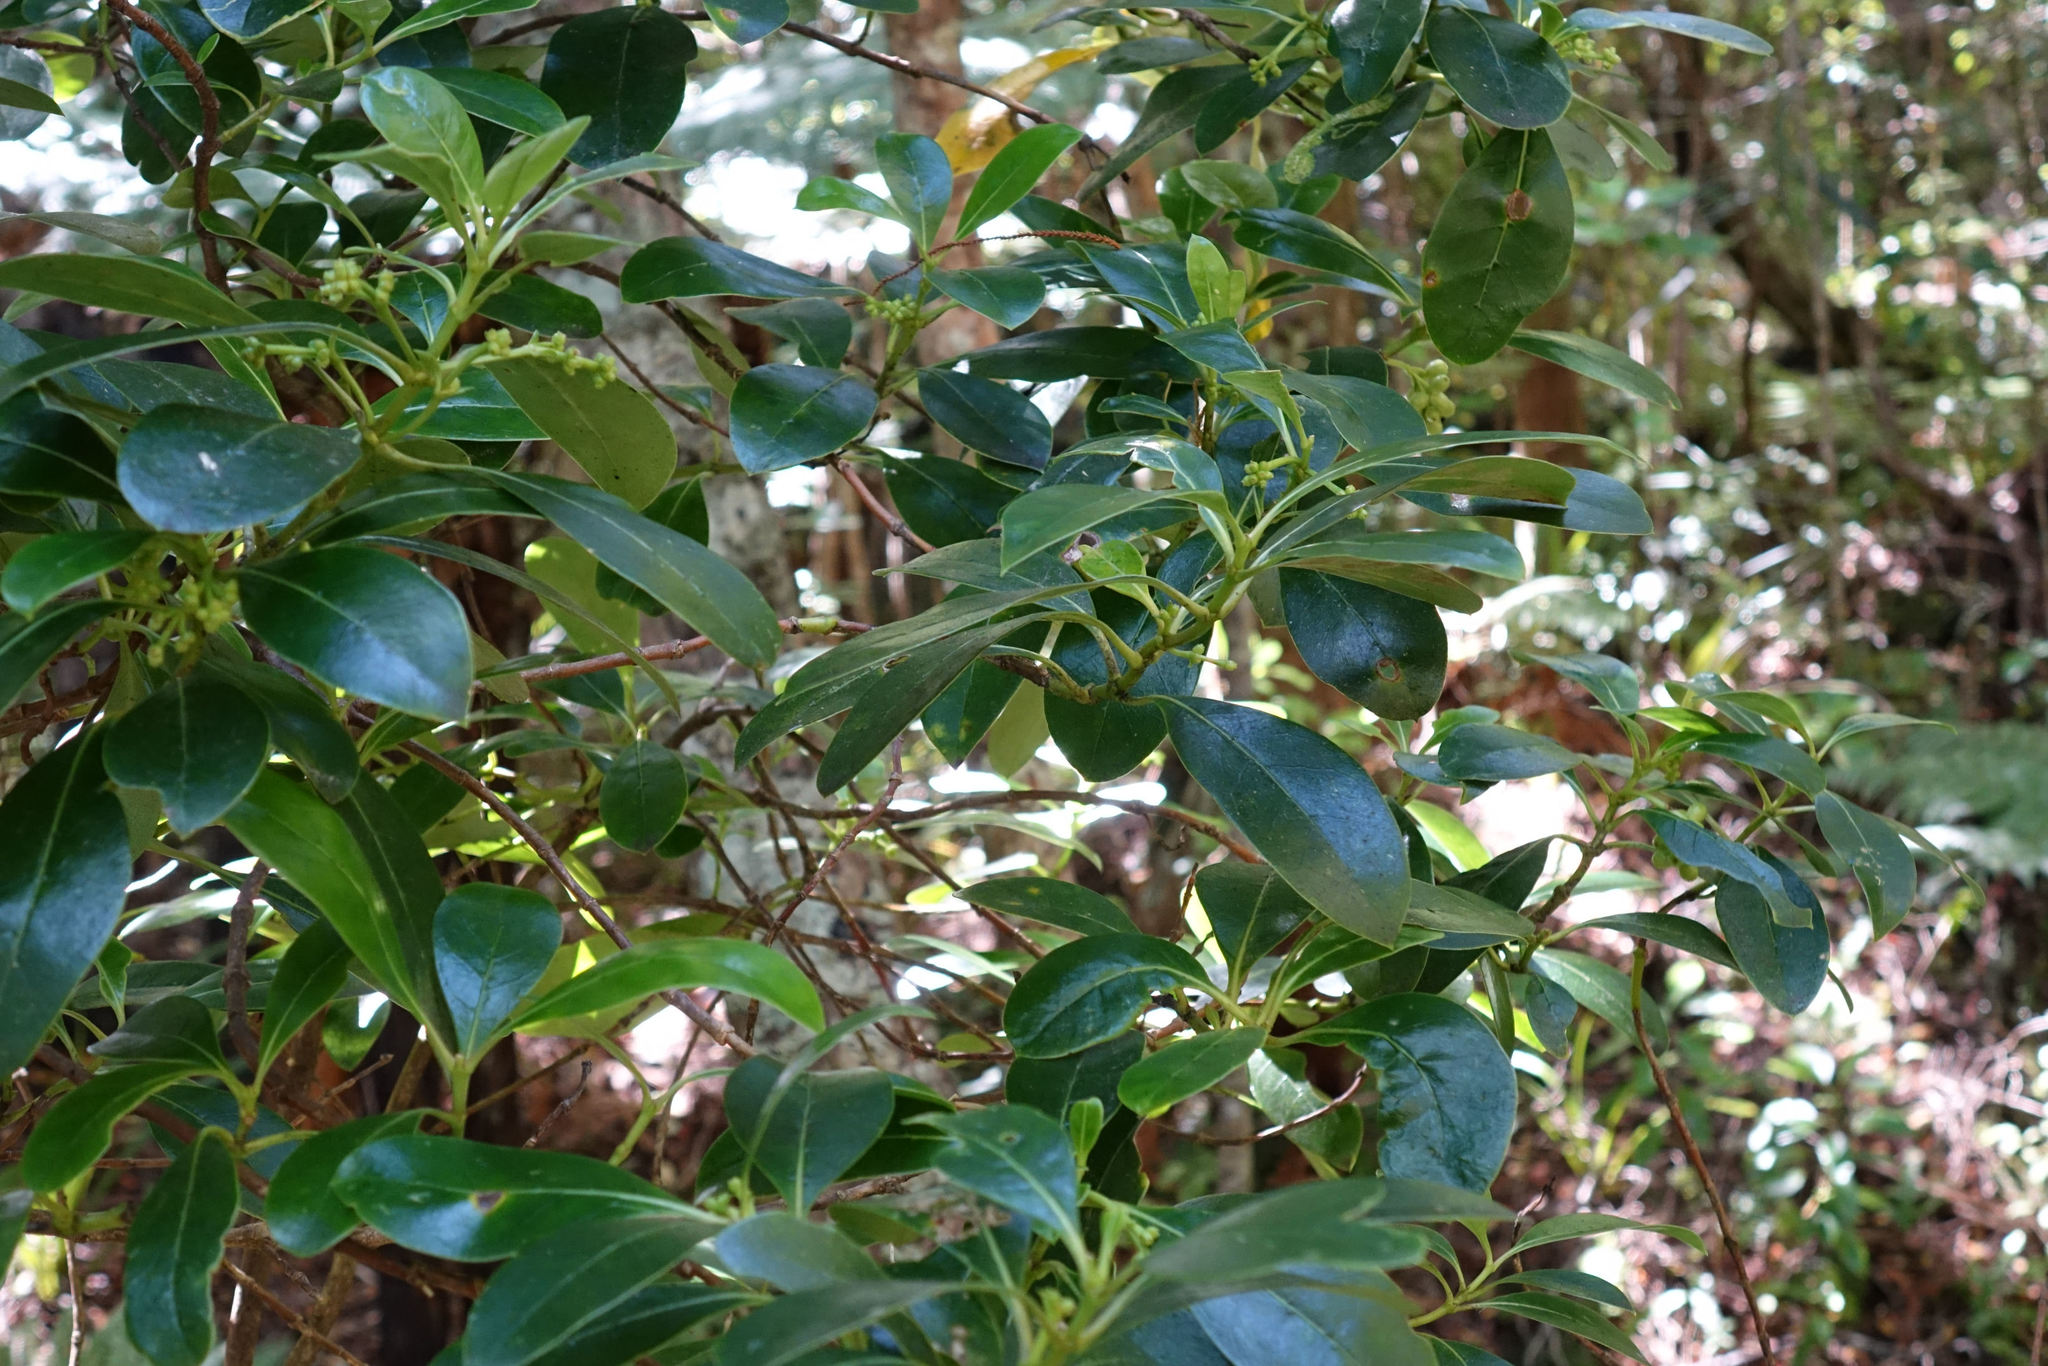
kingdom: Plantae
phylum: Tracheophyta
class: Magnoliopsida
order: Gentianales
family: Rubiaceae
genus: Coprosma
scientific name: Coprosma lucida
